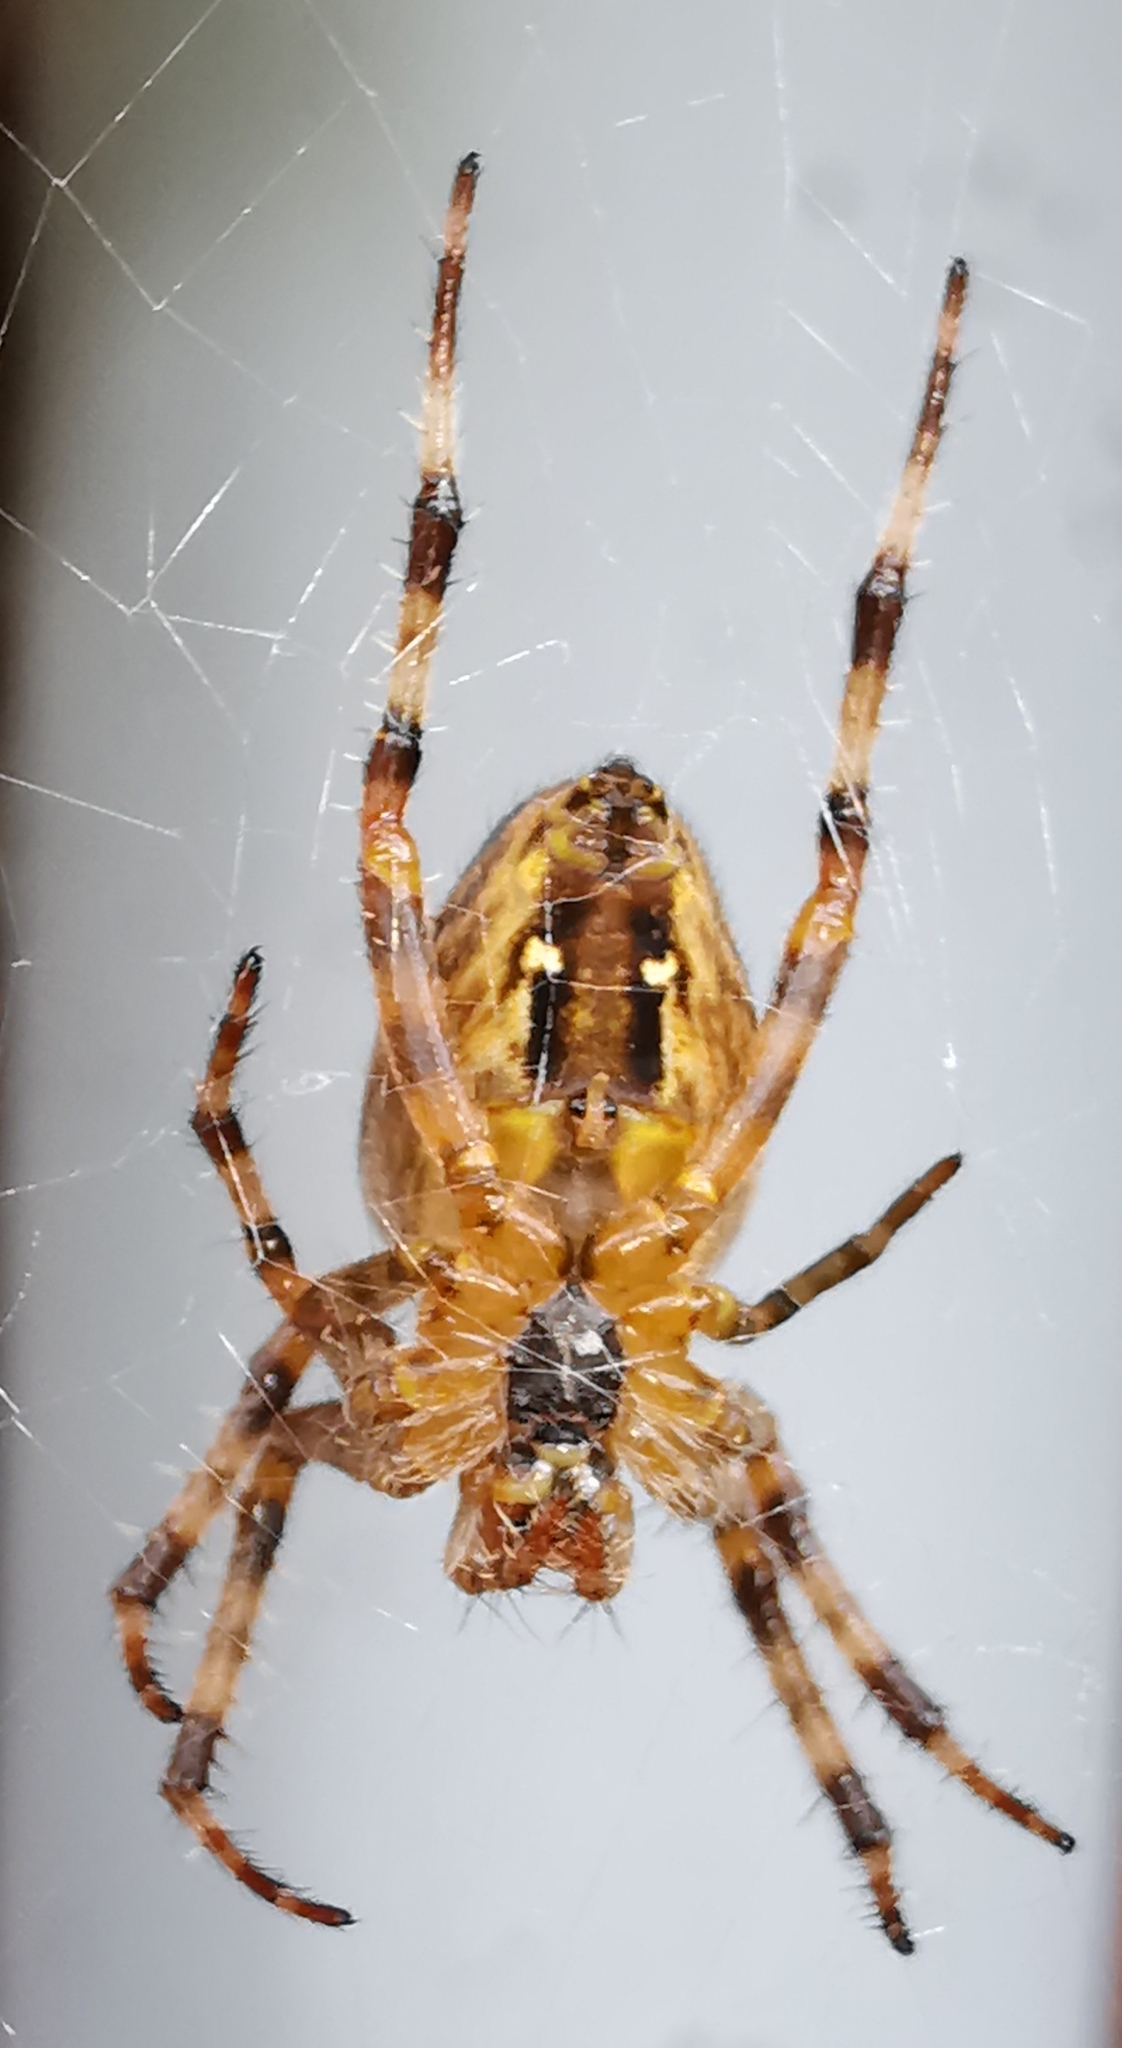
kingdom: Animalia
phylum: Arthropoda
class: Arachnida
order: Araneae
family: Araneidae
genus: Araneus
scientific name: Araneus diadematus
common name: Cross orbweaver
